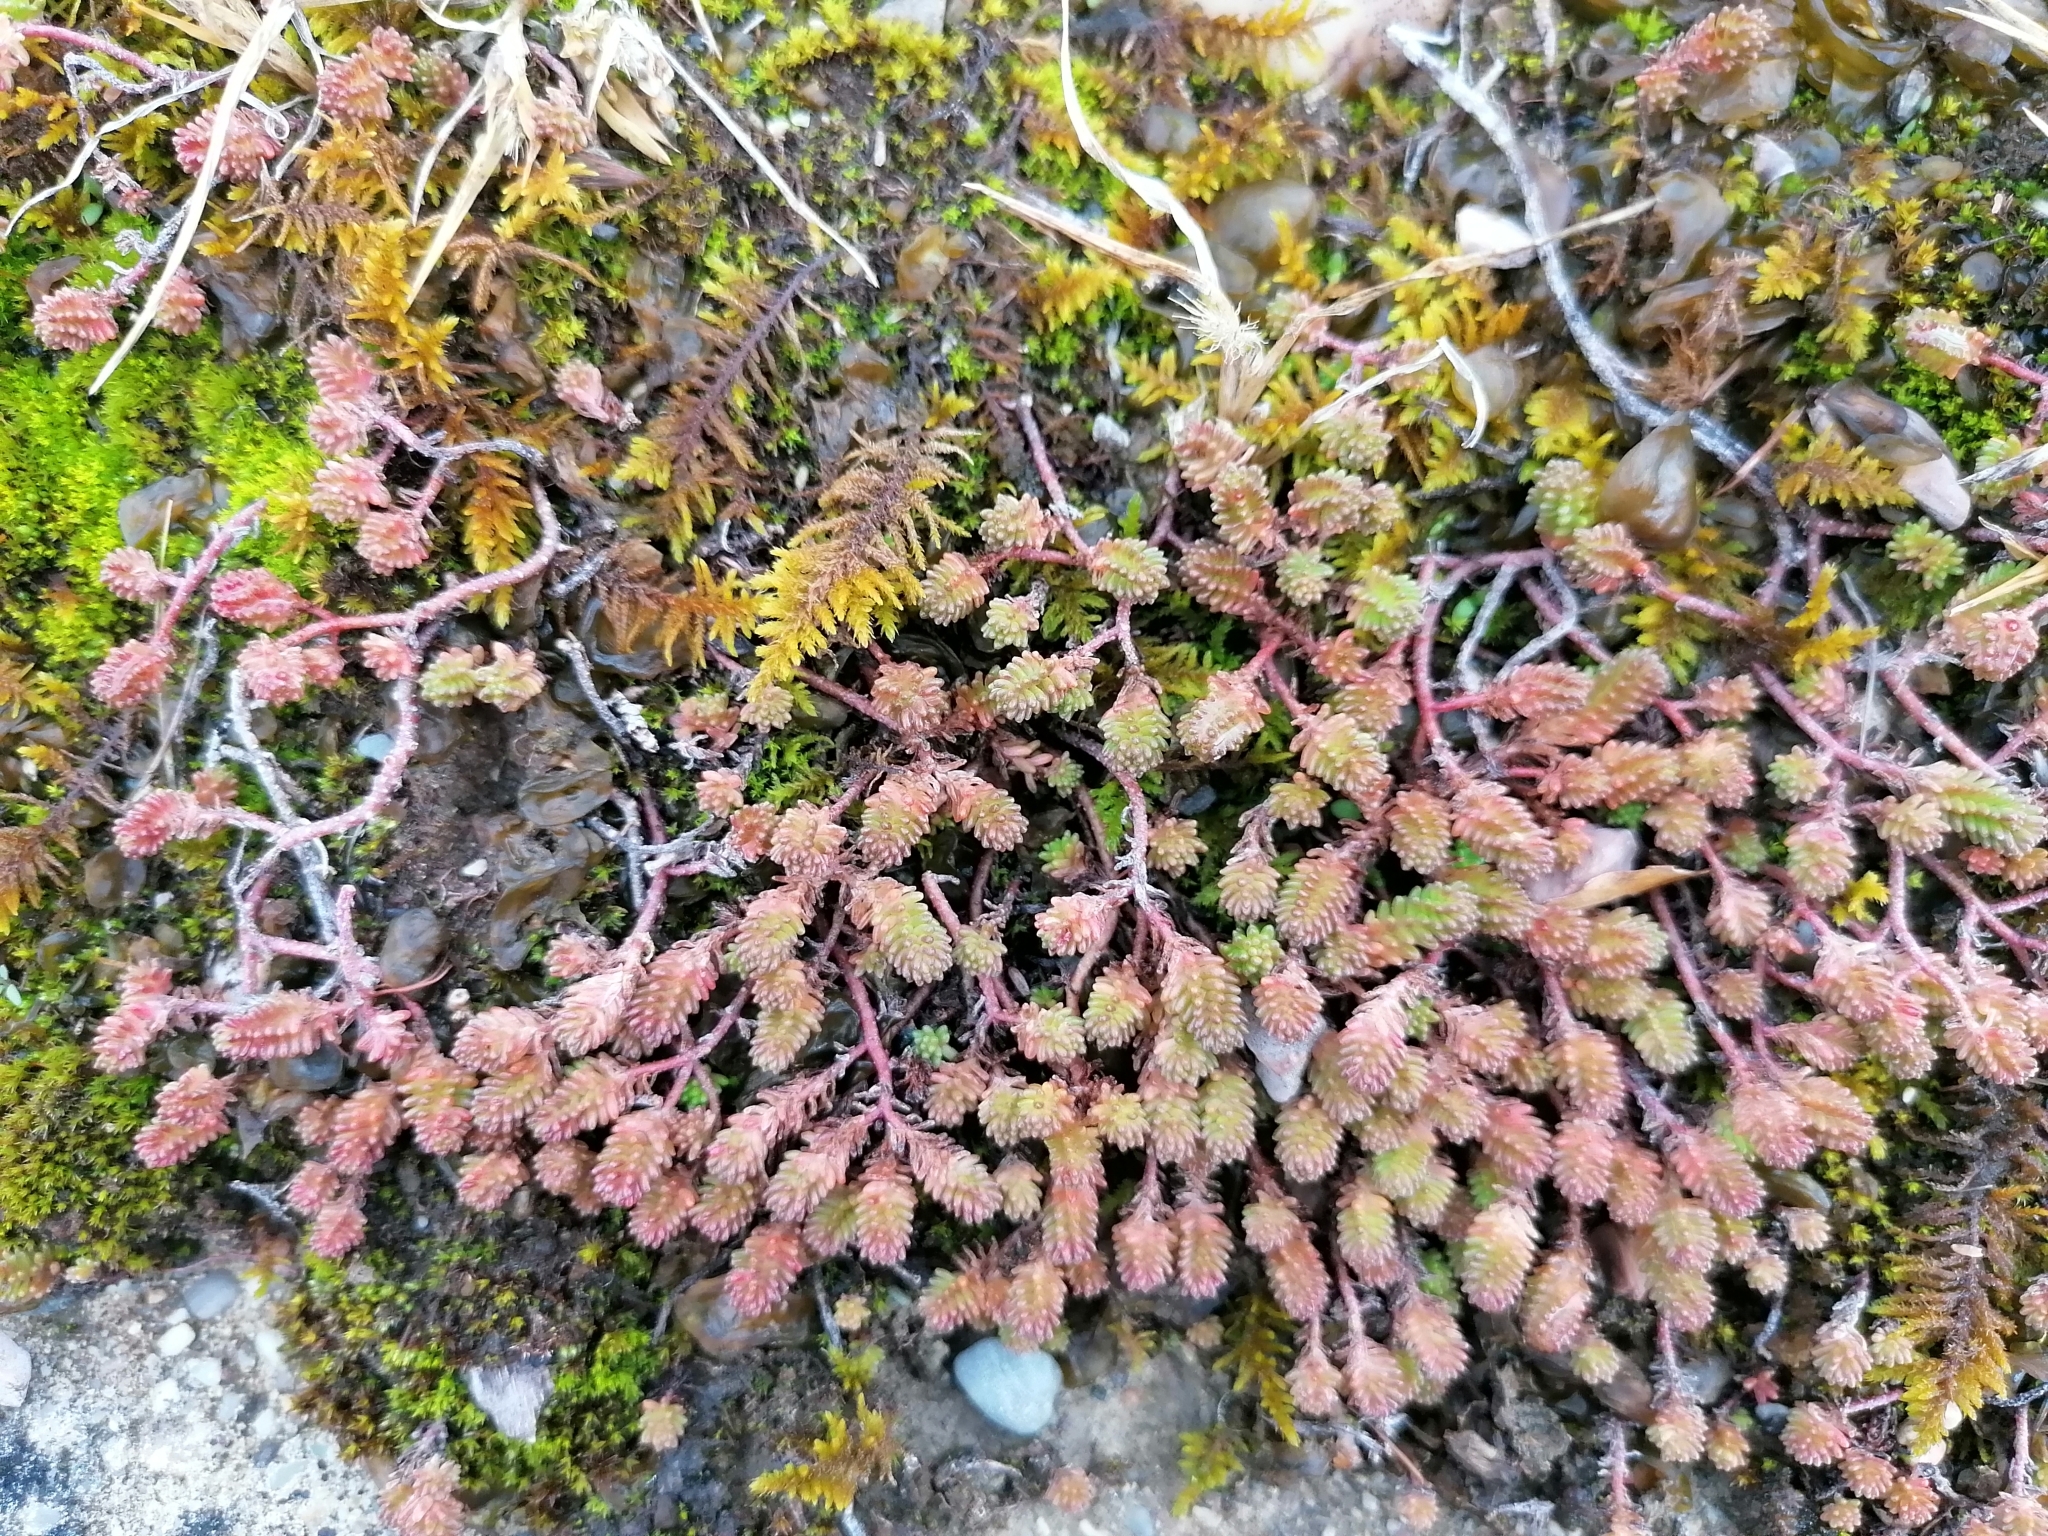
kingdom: Plantae
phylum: Tracheophyta
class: Magnoliopsida
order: Saxifragales
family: Crassulaceae
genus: Sedum
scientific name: Sedum sexangulare
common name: Tasteless stonecrop
